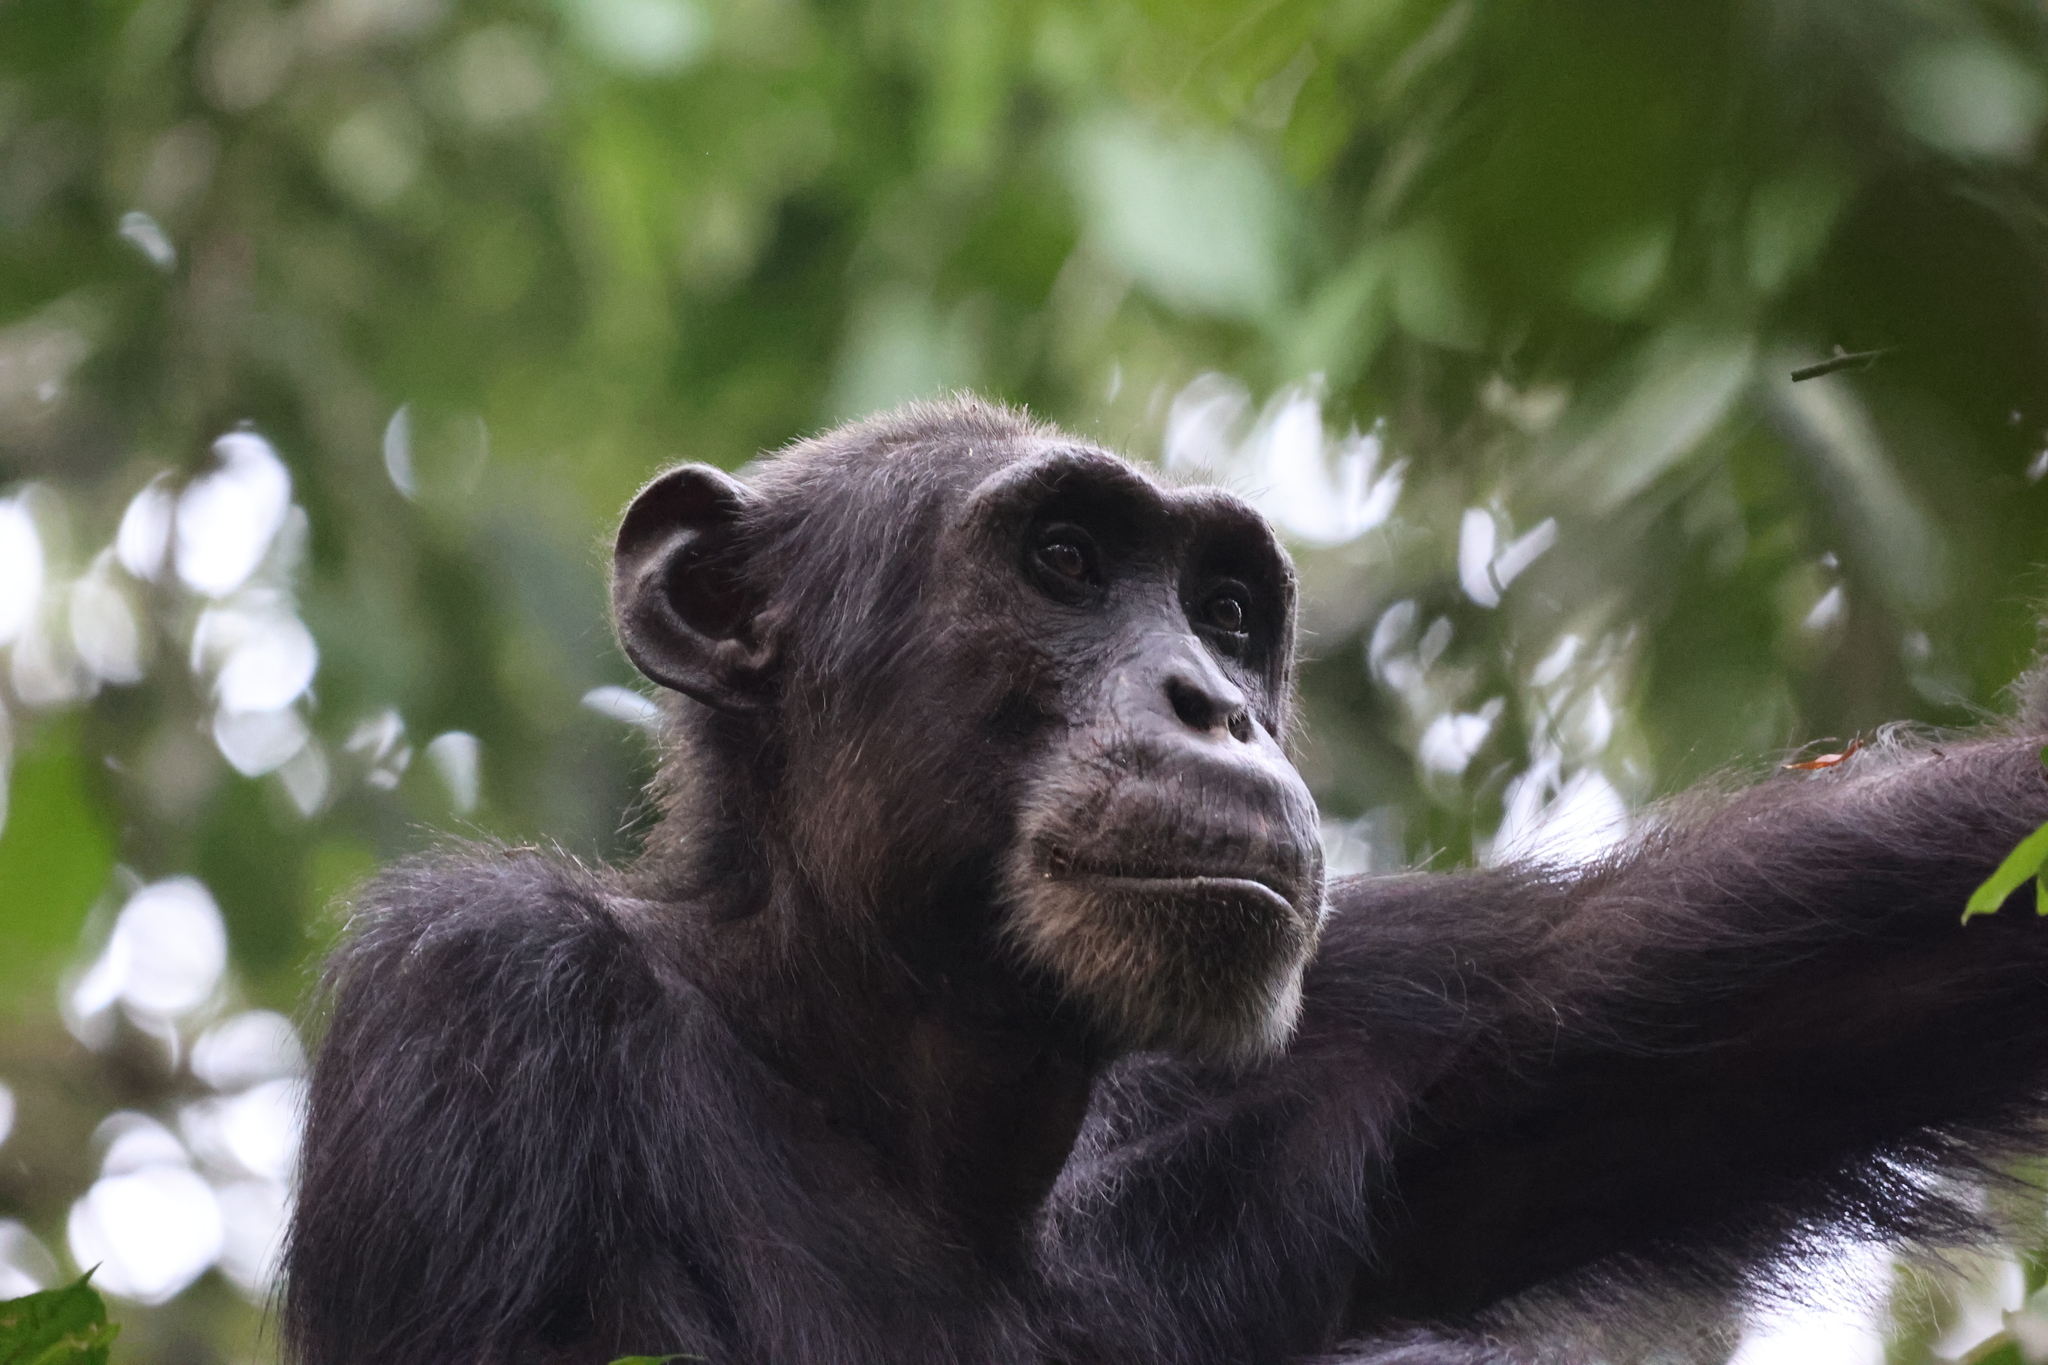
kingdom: Animalia
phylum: Chordata
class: Mammalia
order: Primates
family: Hominidae
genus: Pan
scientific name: Pan troglodytes
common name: Chimpanzee
